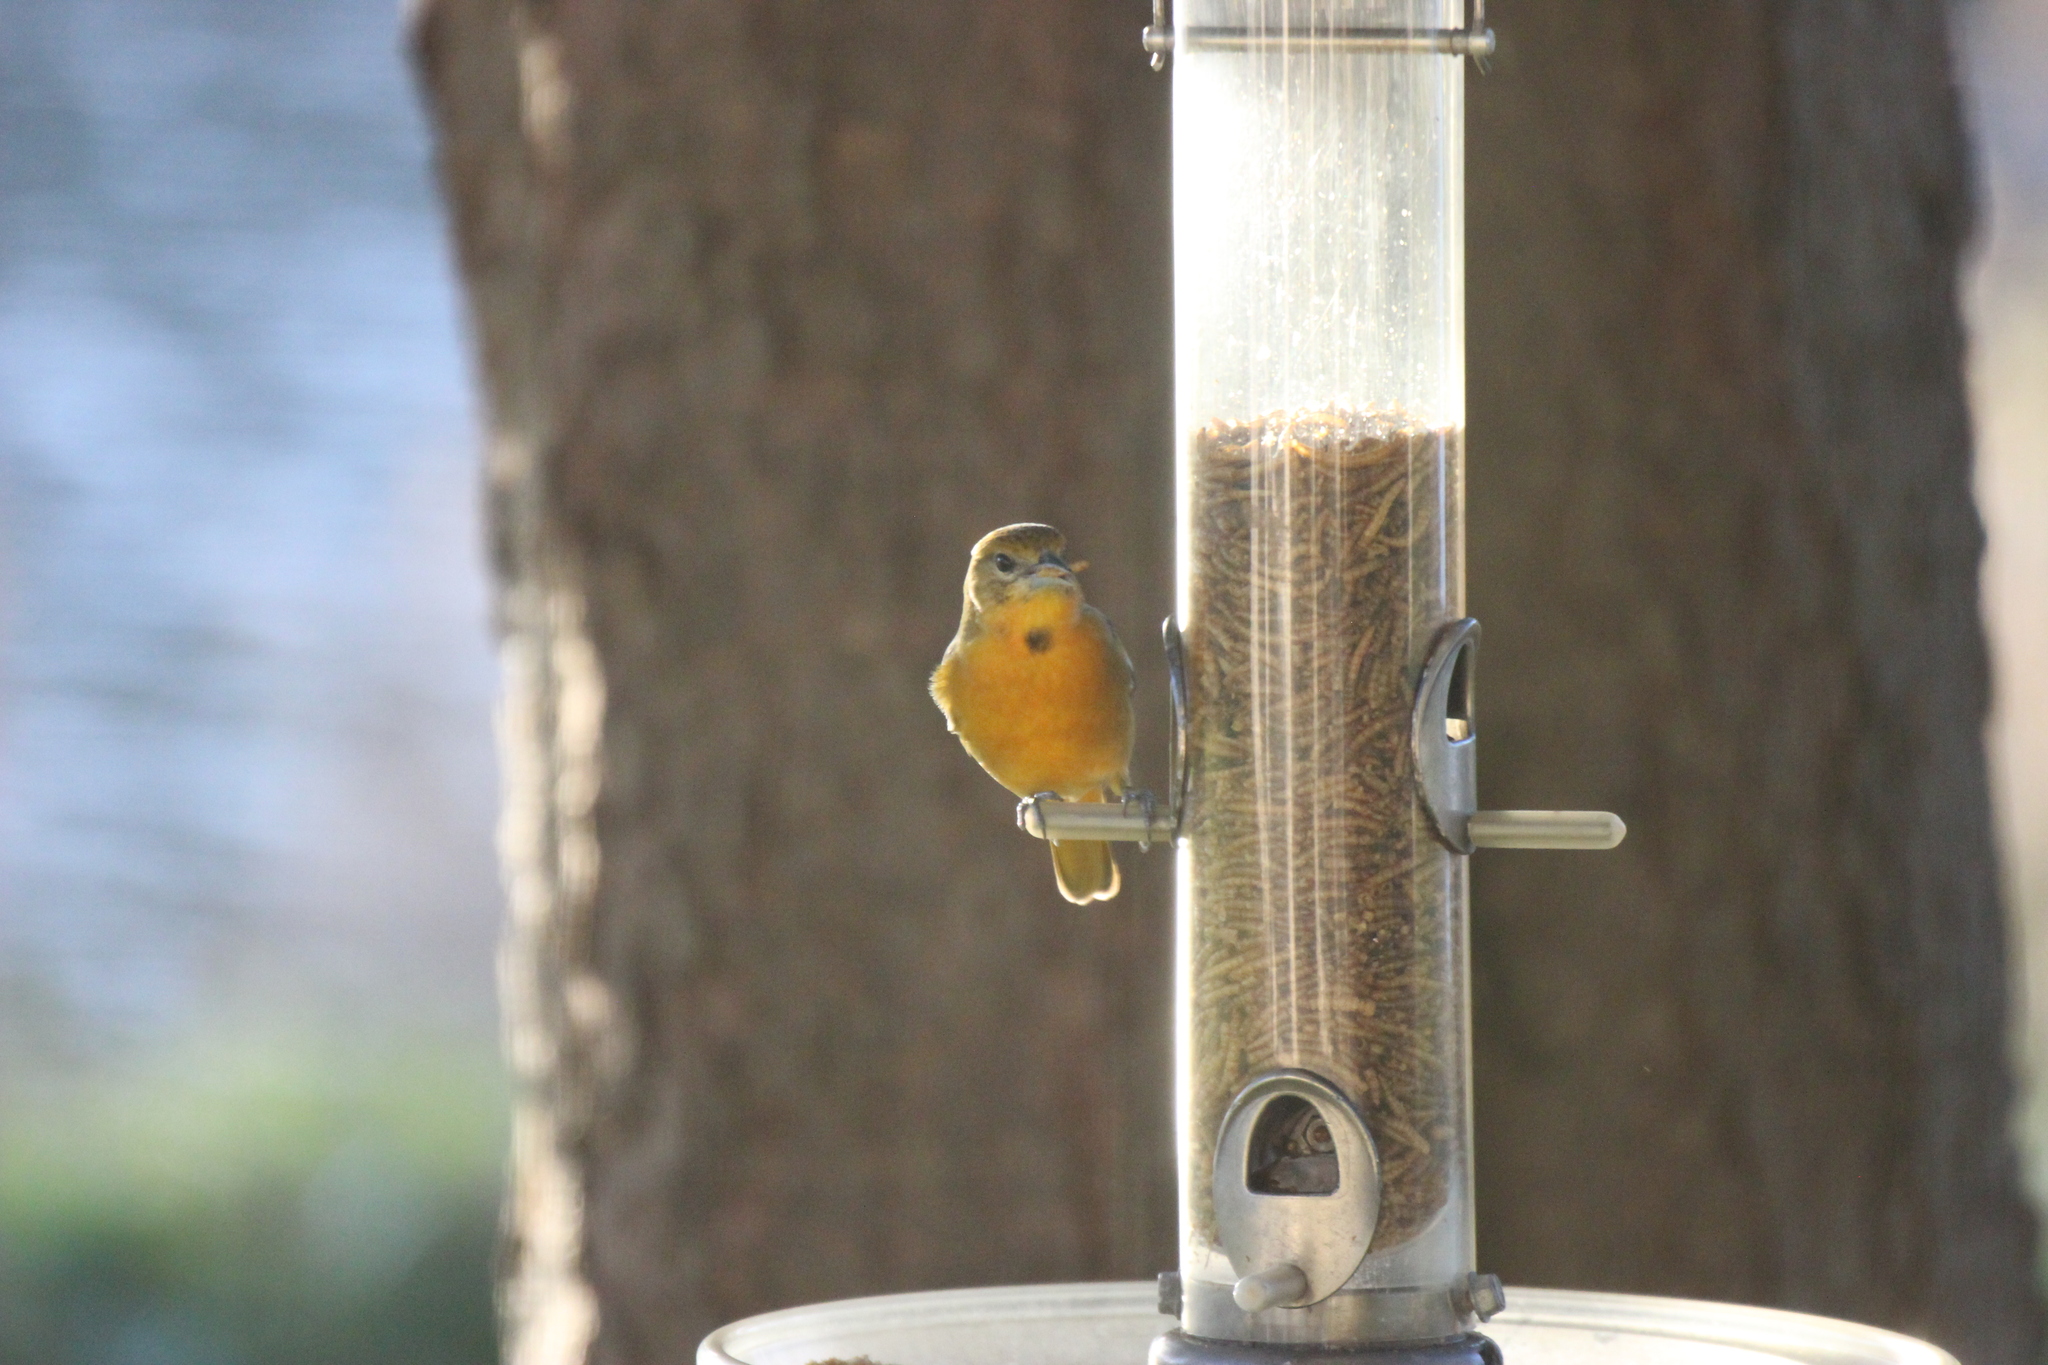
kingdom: Animalia
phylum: Chordata
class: Aves
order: Passeriformes
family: Icteridae
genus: Icterus
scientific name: Icterus galbula
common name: Baltimore oriole
